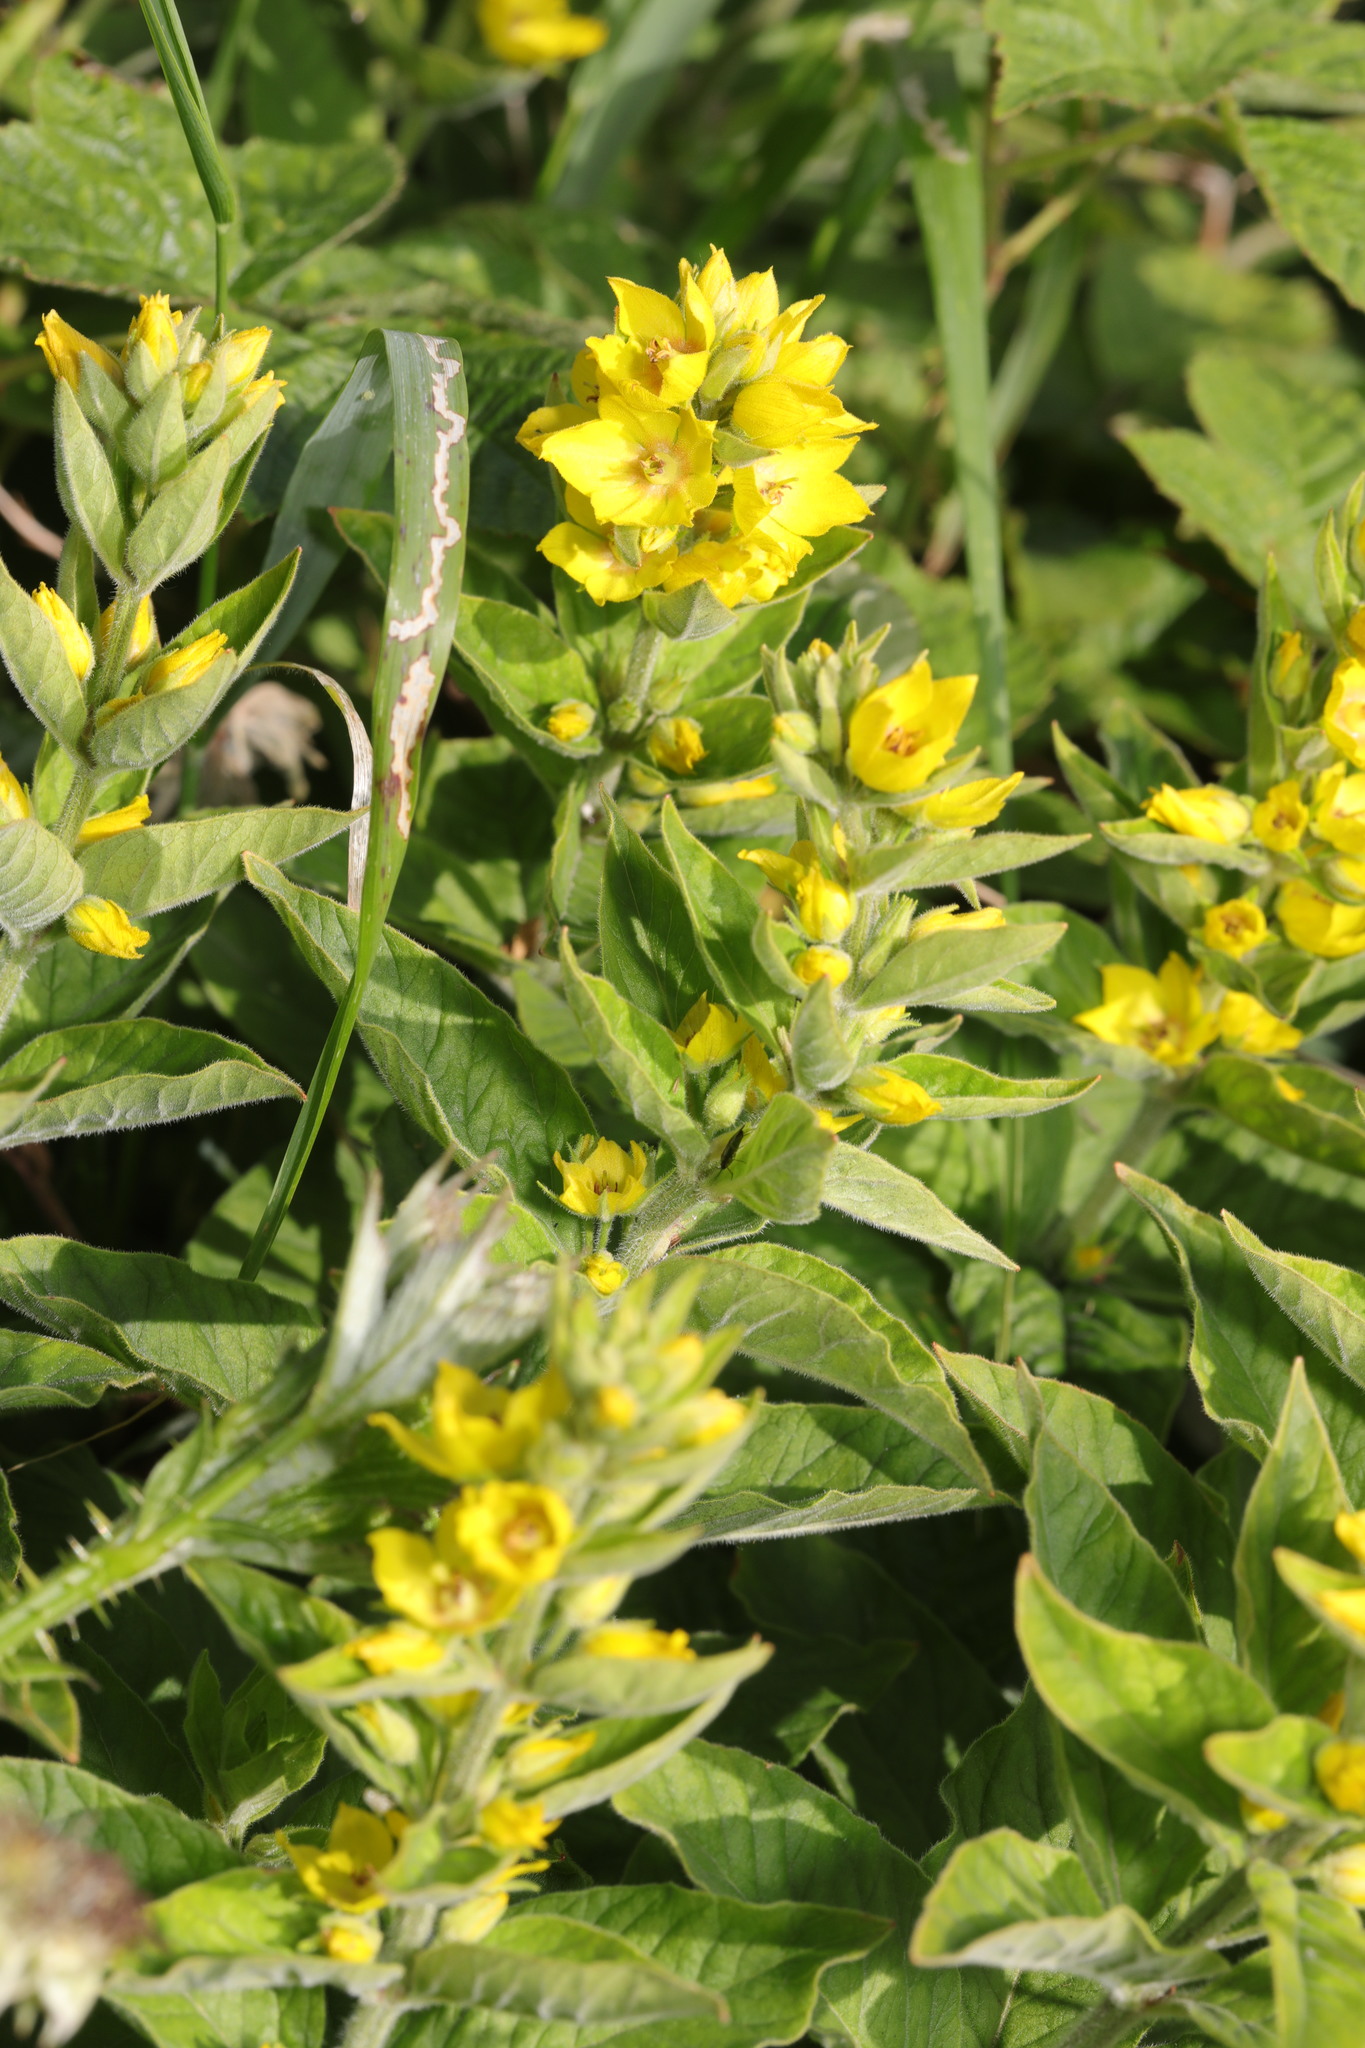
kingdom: Plantae
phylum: Tracheophyta
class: Magnoliopsida
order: Ericales
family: Primulaceae
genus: Lysimachia
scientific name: Lysimachia punctata
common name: Dotted loosestrife
